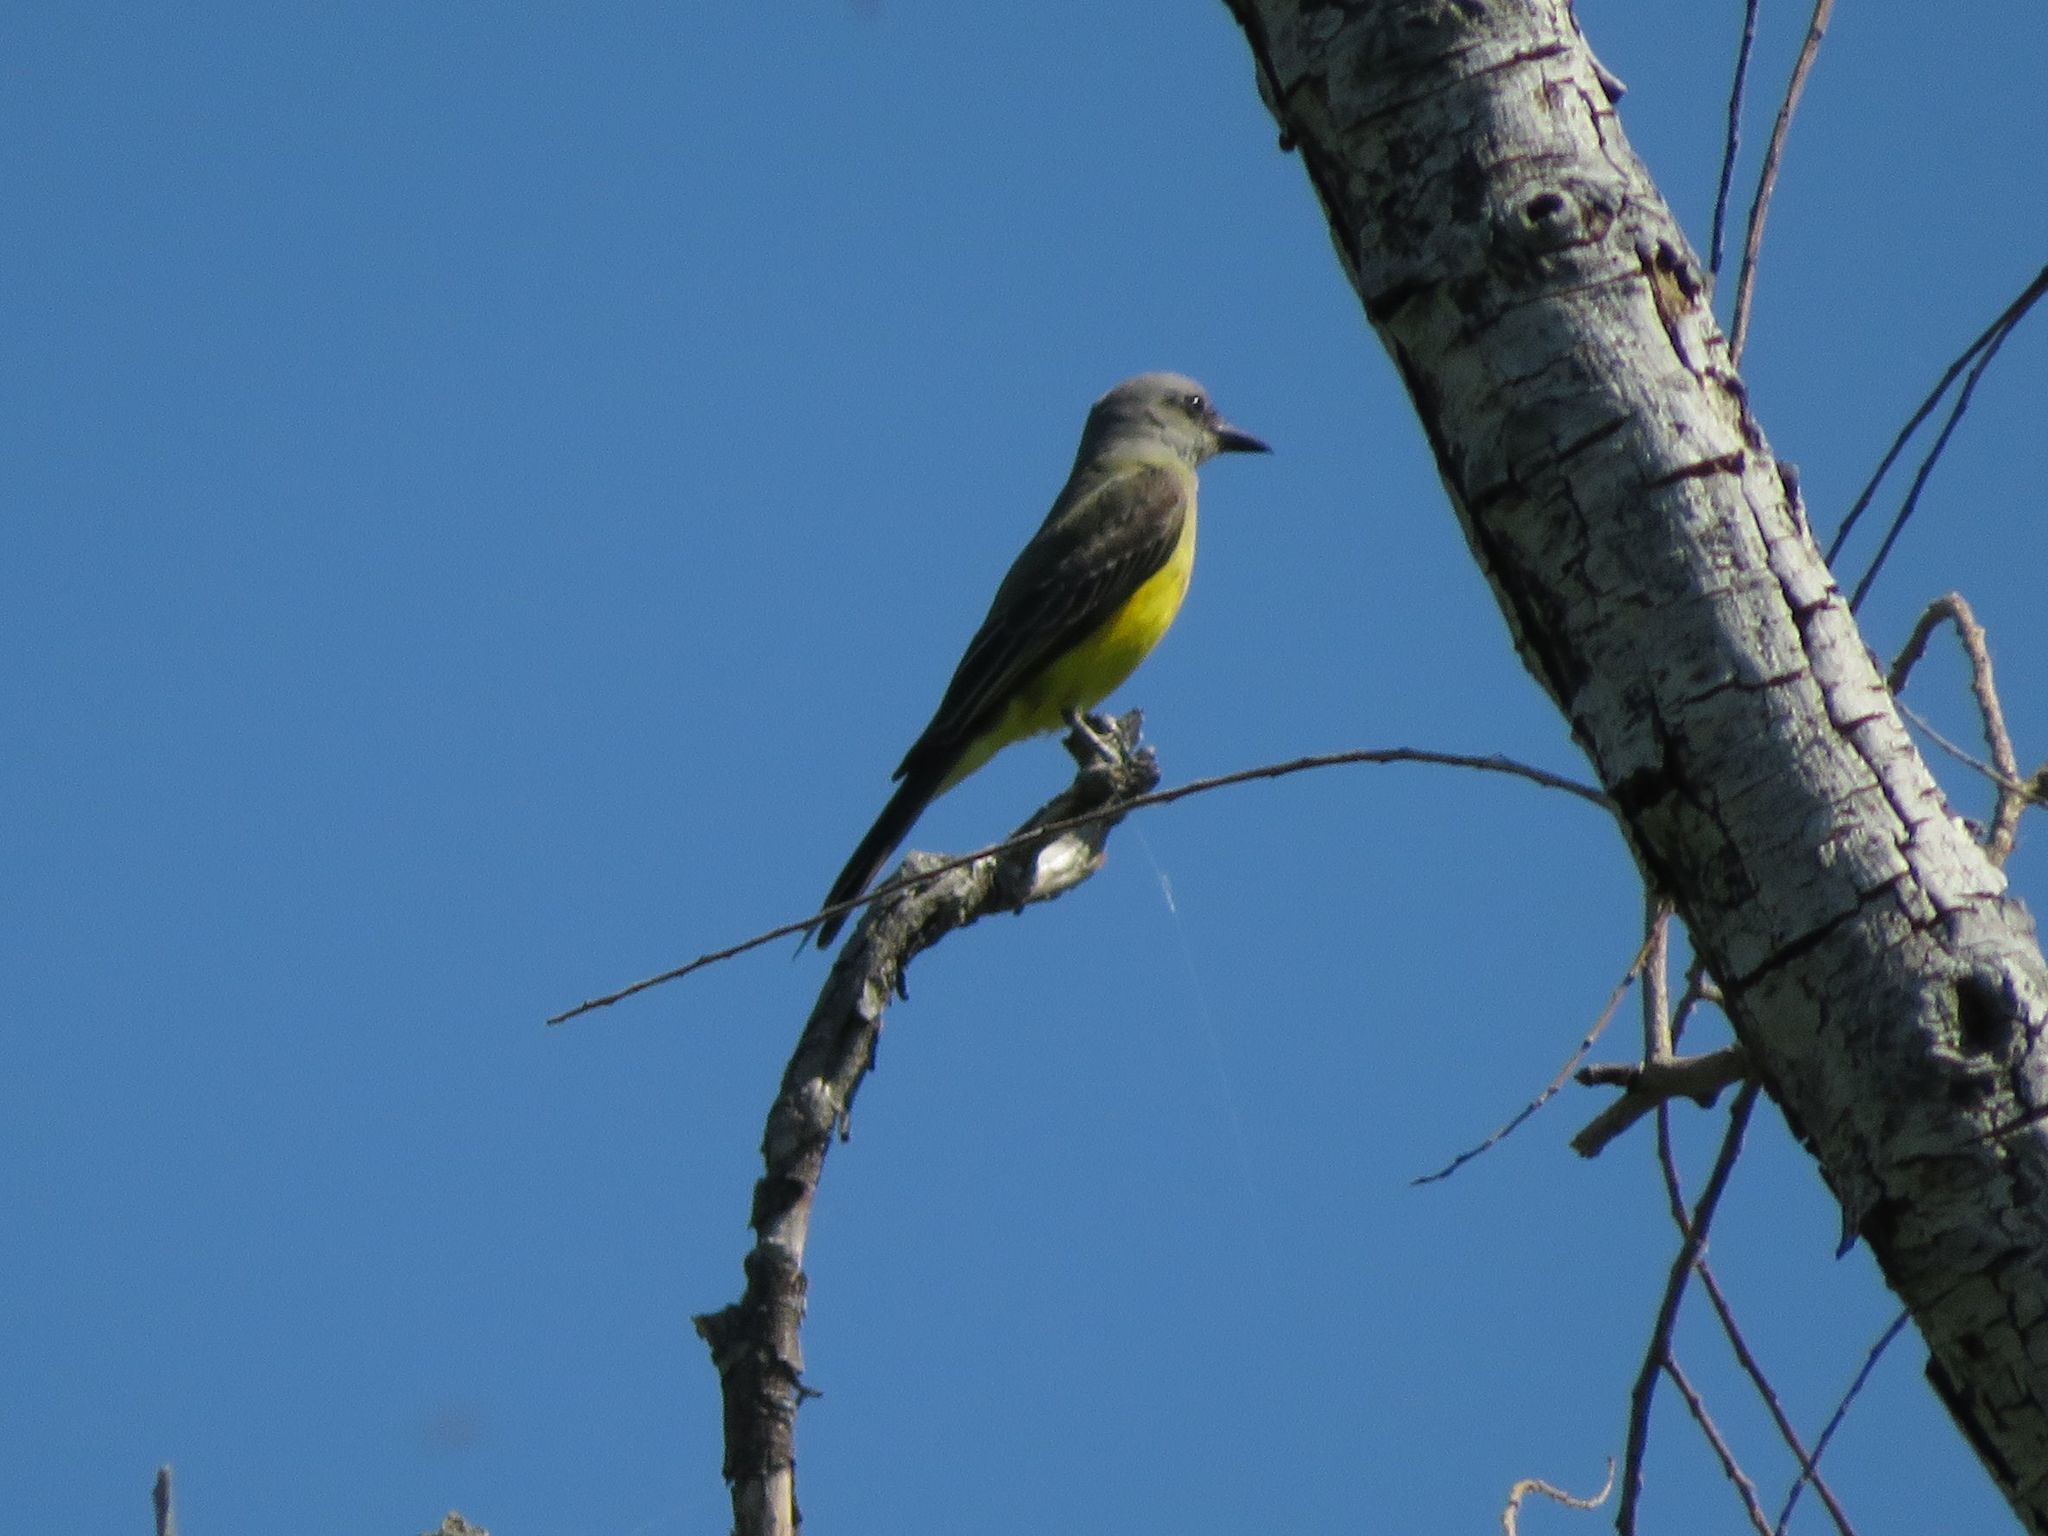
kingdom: Animalia
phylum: Chordata
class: Aves
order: Passeriformes
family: Tyrannidae
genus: Tyrannus
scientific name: Tyrannus melancholicus
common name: Tropical kingbird
